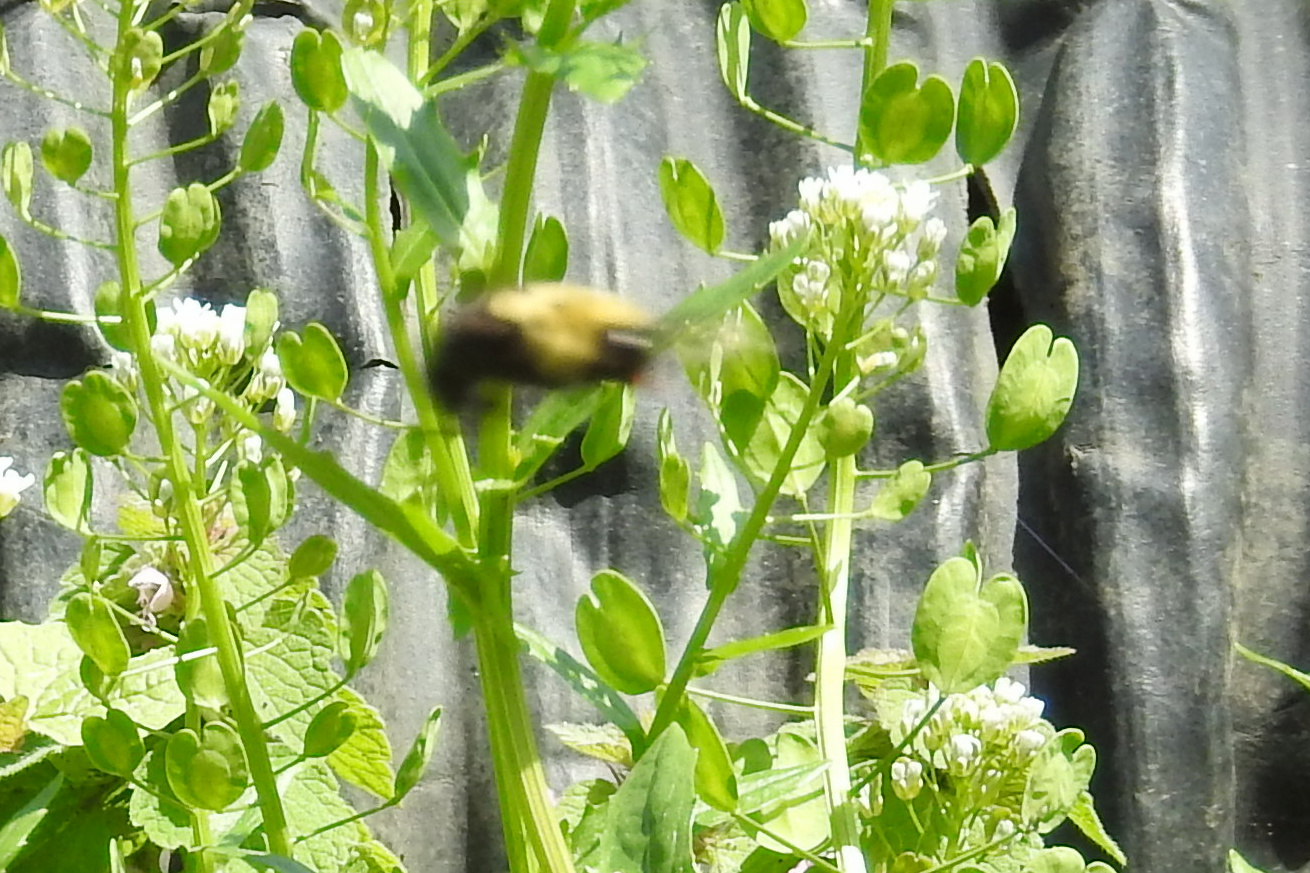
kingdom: Animalia
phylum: Arthropoda
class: Insecta
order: Hymenoptera
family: Apidae
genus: Bombus
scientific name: Bombus
